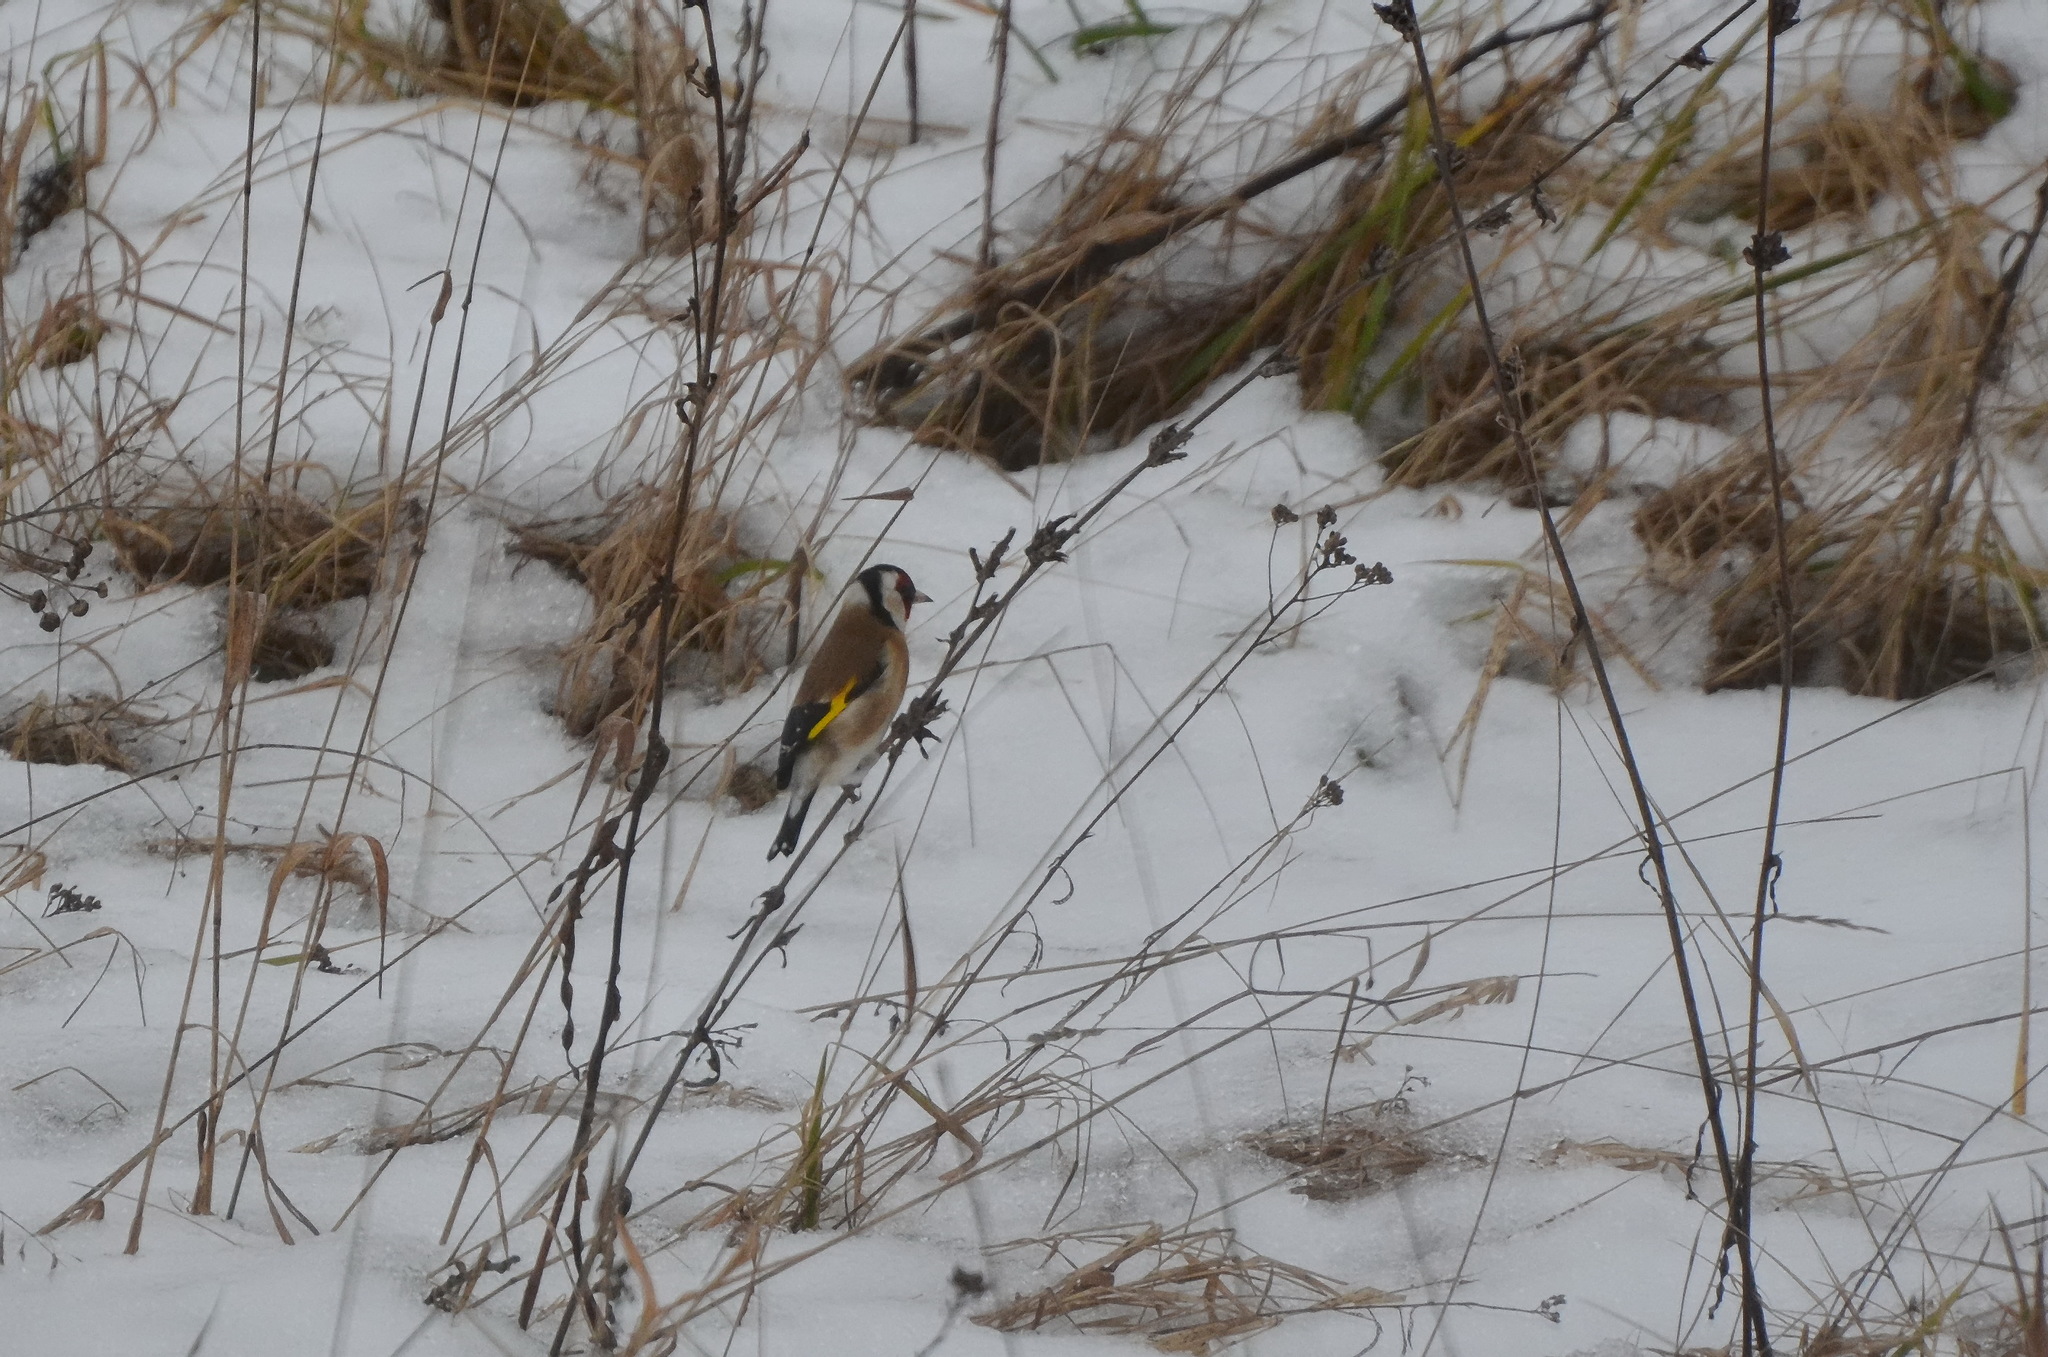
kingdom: Animalia
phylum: Chordata
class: Aves
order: Passeriformes
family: Fringillidae
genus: Carduelis
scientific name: Carduelis carduelis
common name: European goldfinch
